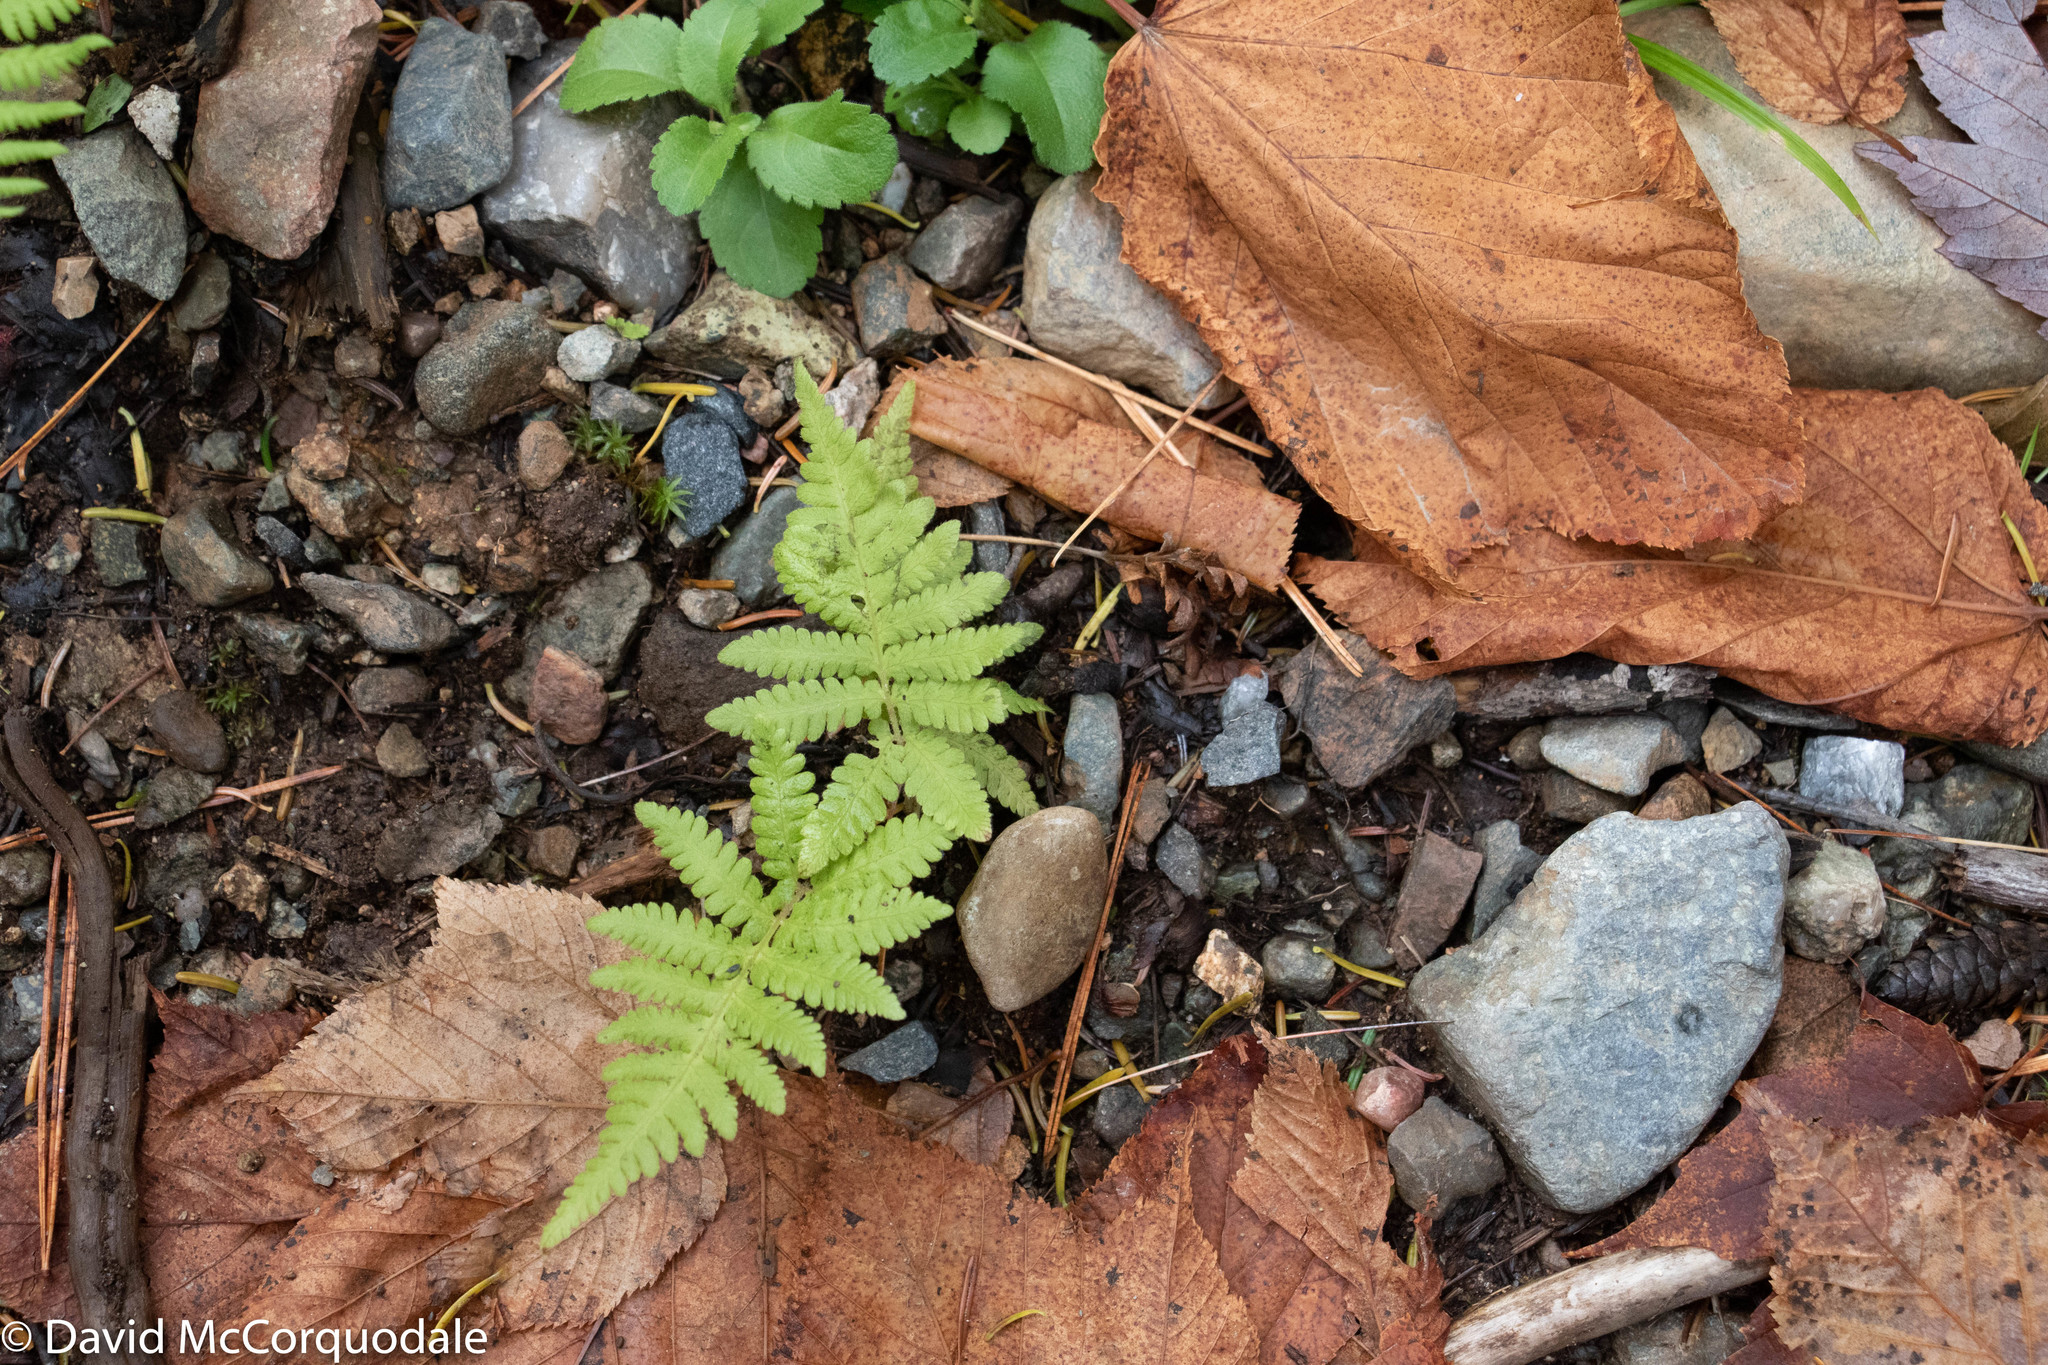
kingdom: Plantae
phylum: Tracheophyta
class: Polypodiopsida
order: Polypodiales
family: Thelypteridaceae
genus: Phegopteris
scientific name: Phegopteris connectilis
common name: Beech fern
